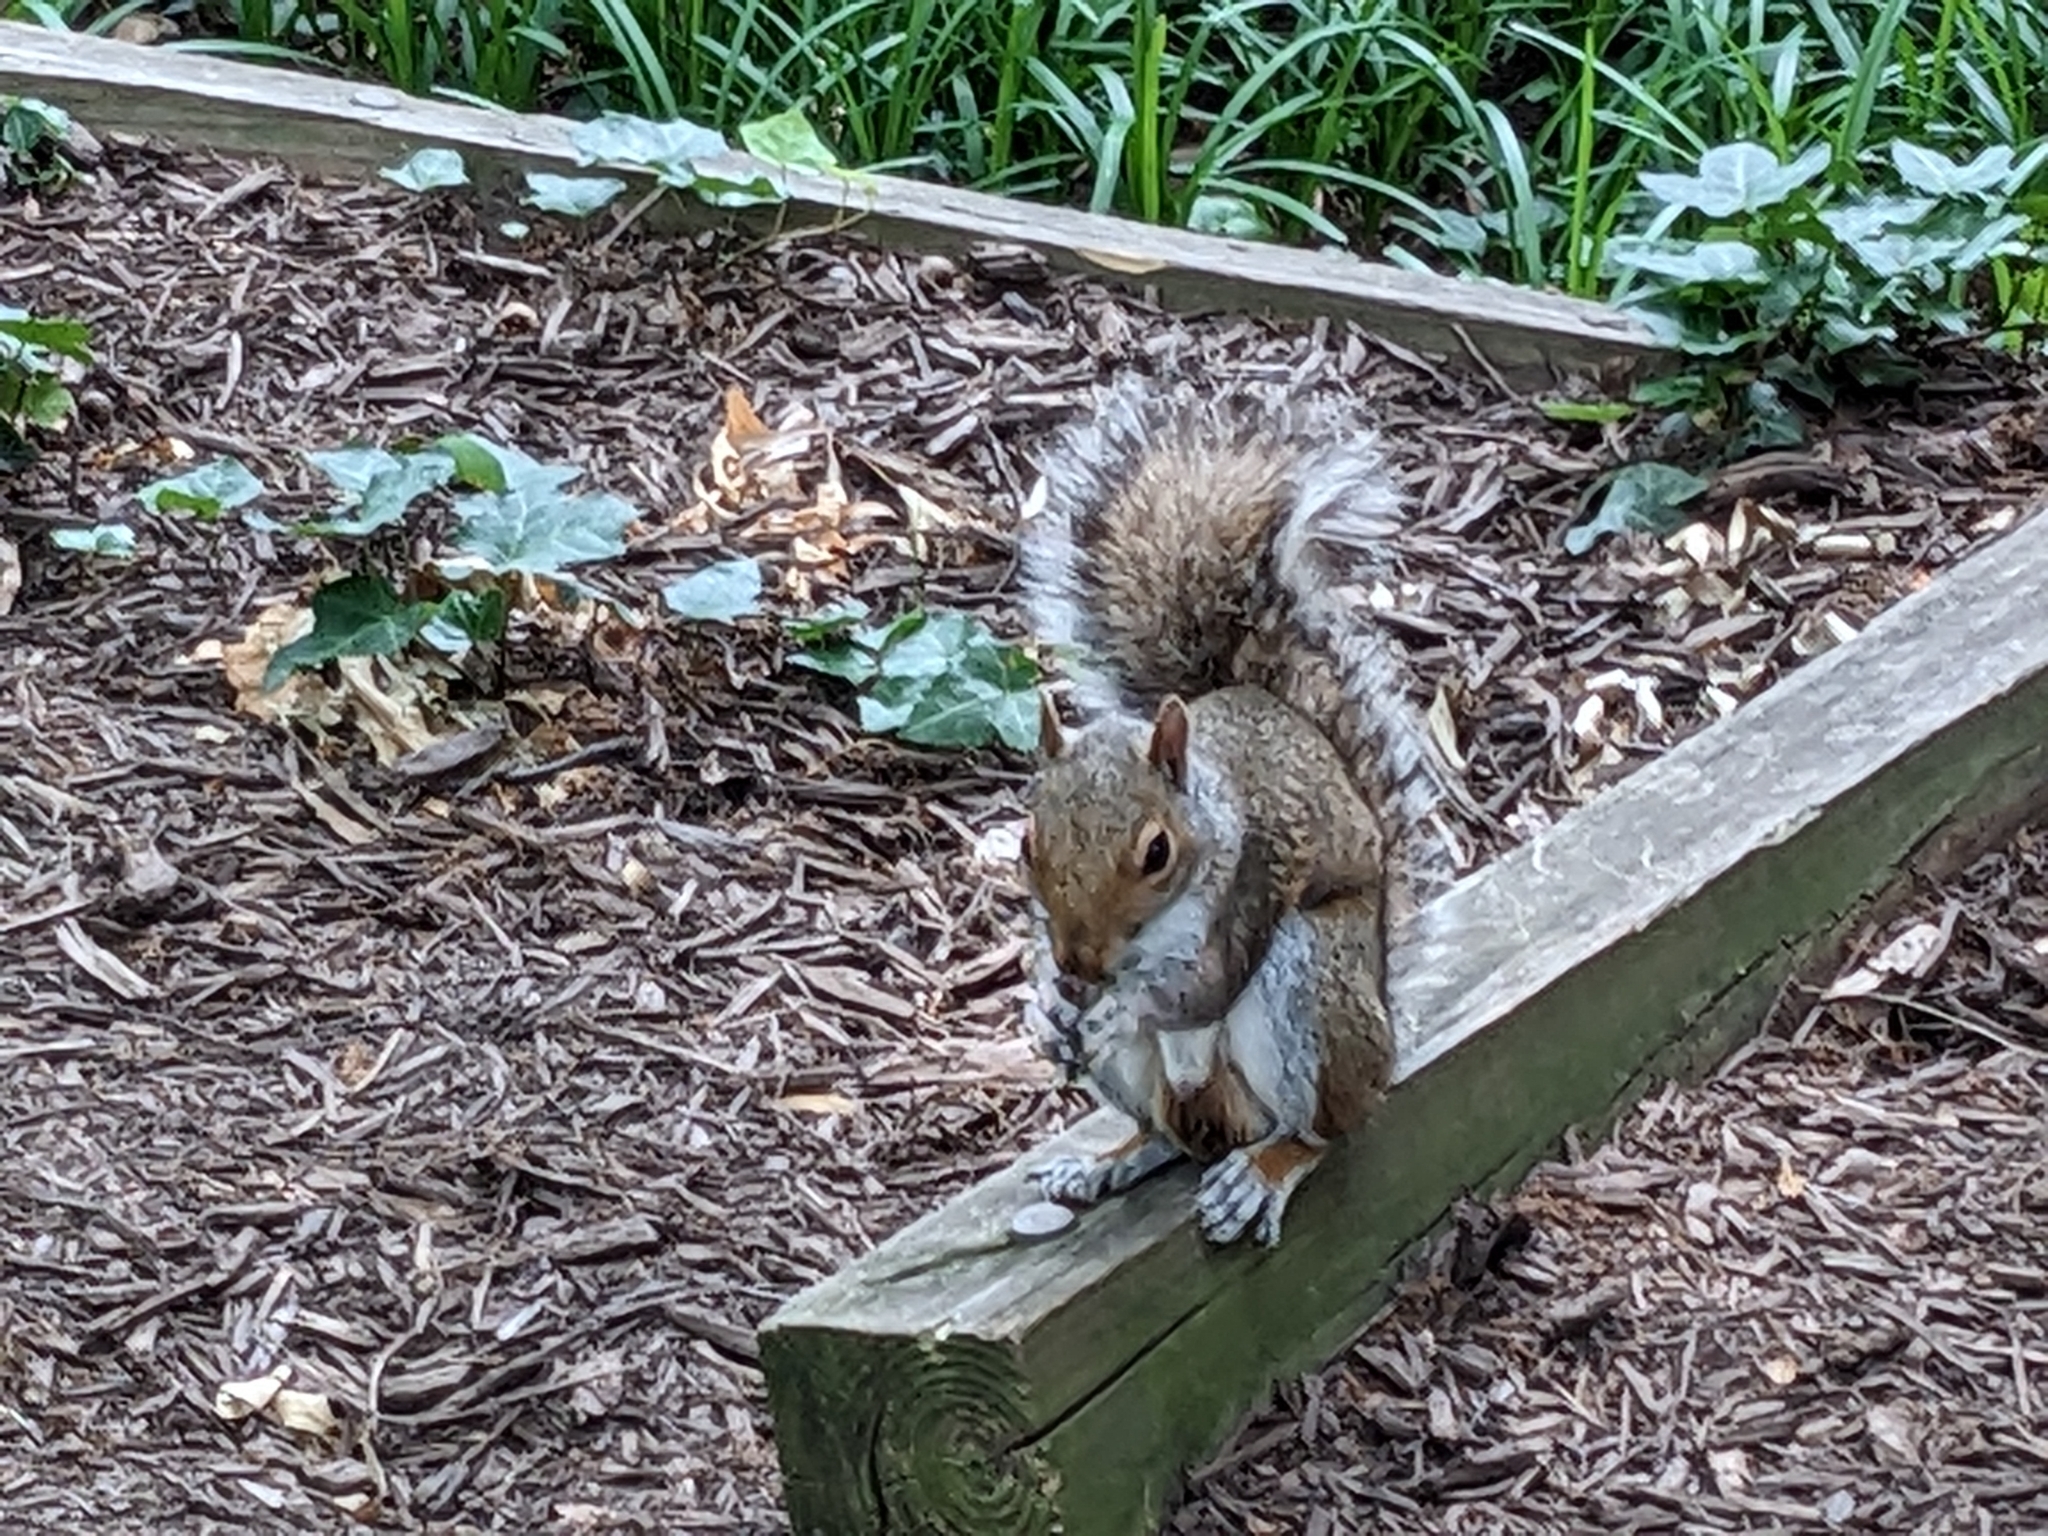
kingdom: Animalia
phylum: Chordata
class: Mammalia
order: Rodentia
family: Sciuridae
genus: Sciurus
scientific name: Sciurus carolinensis
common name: Eastern gray squirrel
